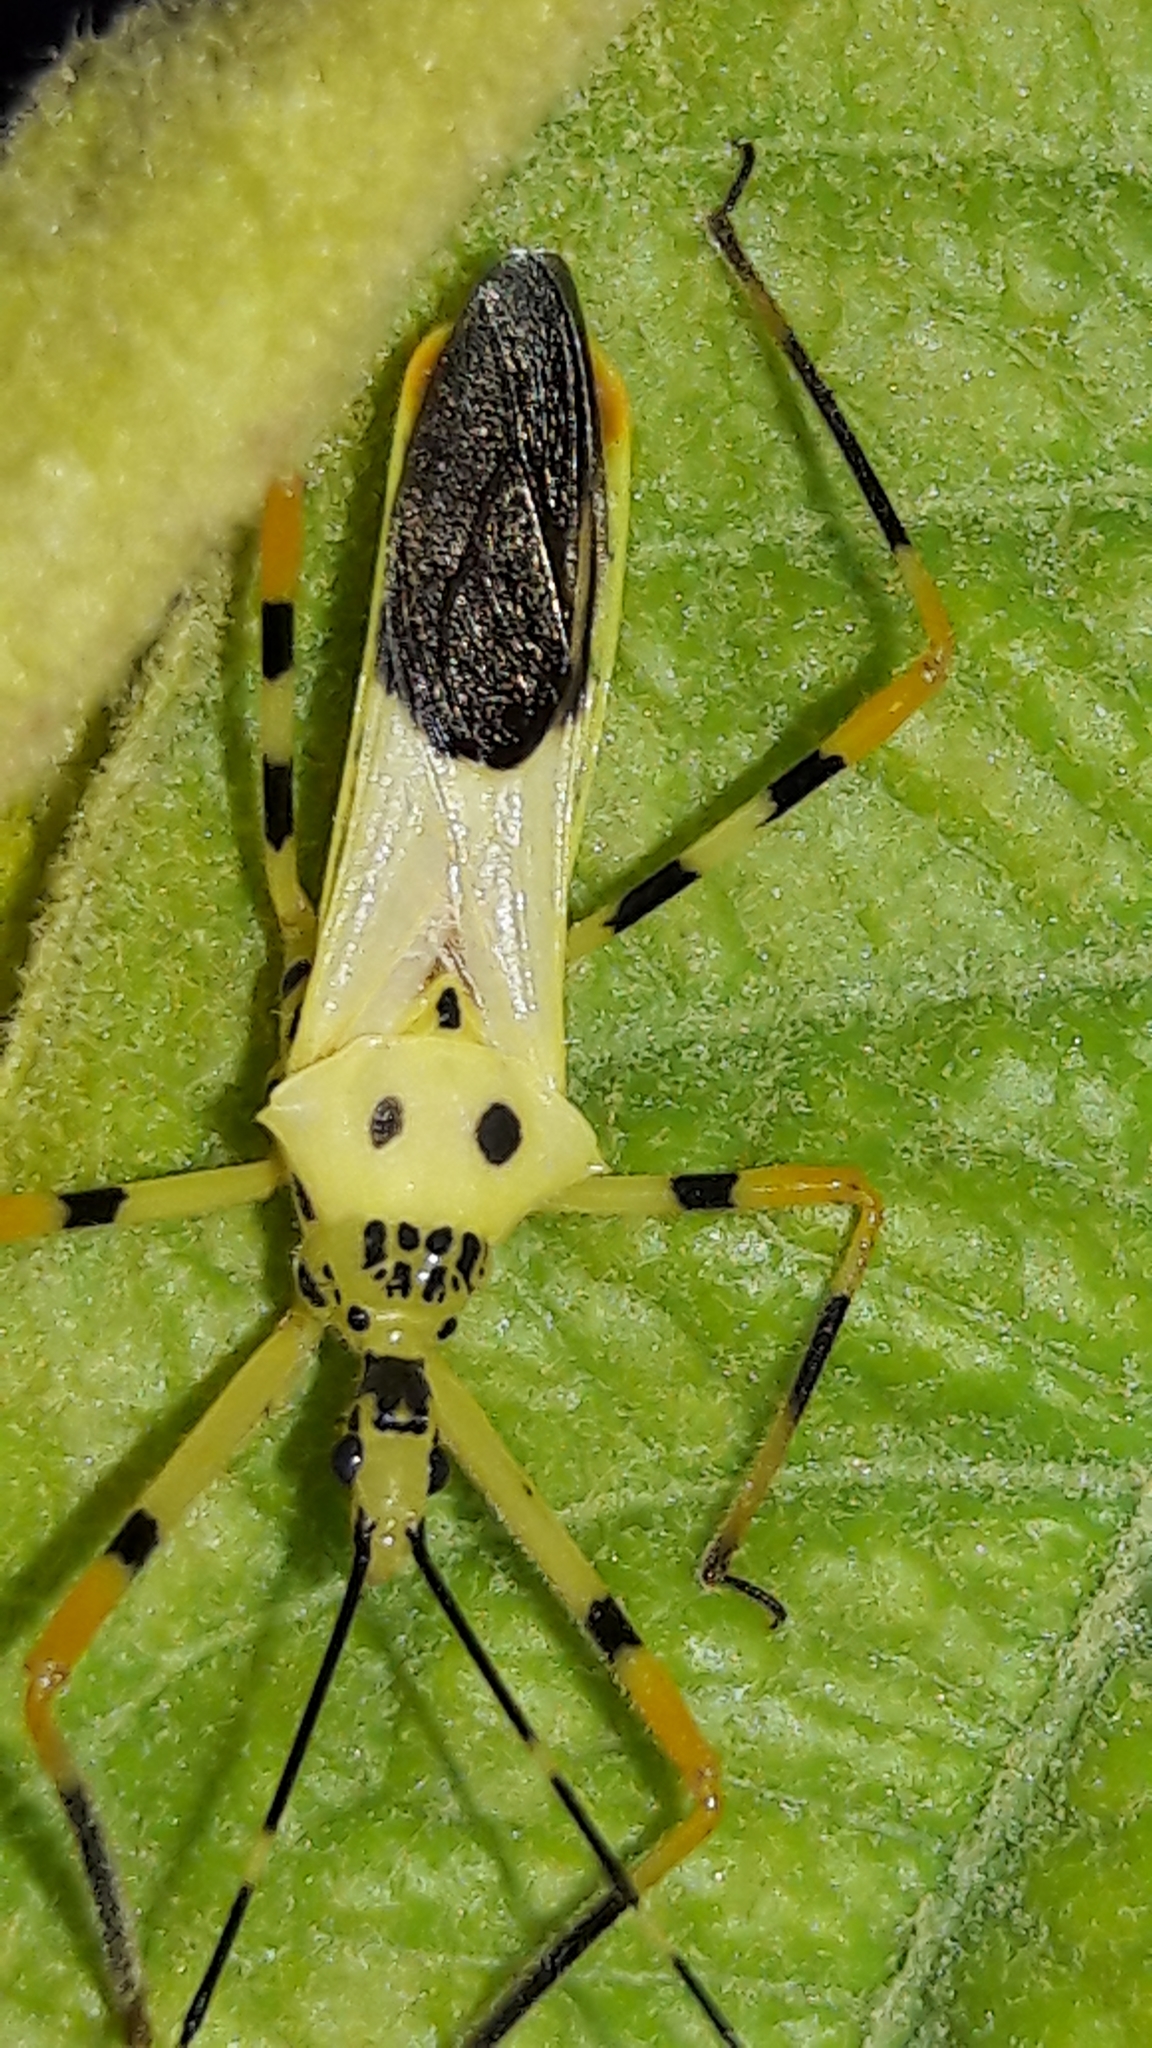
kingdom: Animalia
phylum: Arthropoda
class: Insecta
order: Hemiptera
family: Reduviidae
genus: Zelus
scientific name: Zelus armillatus
